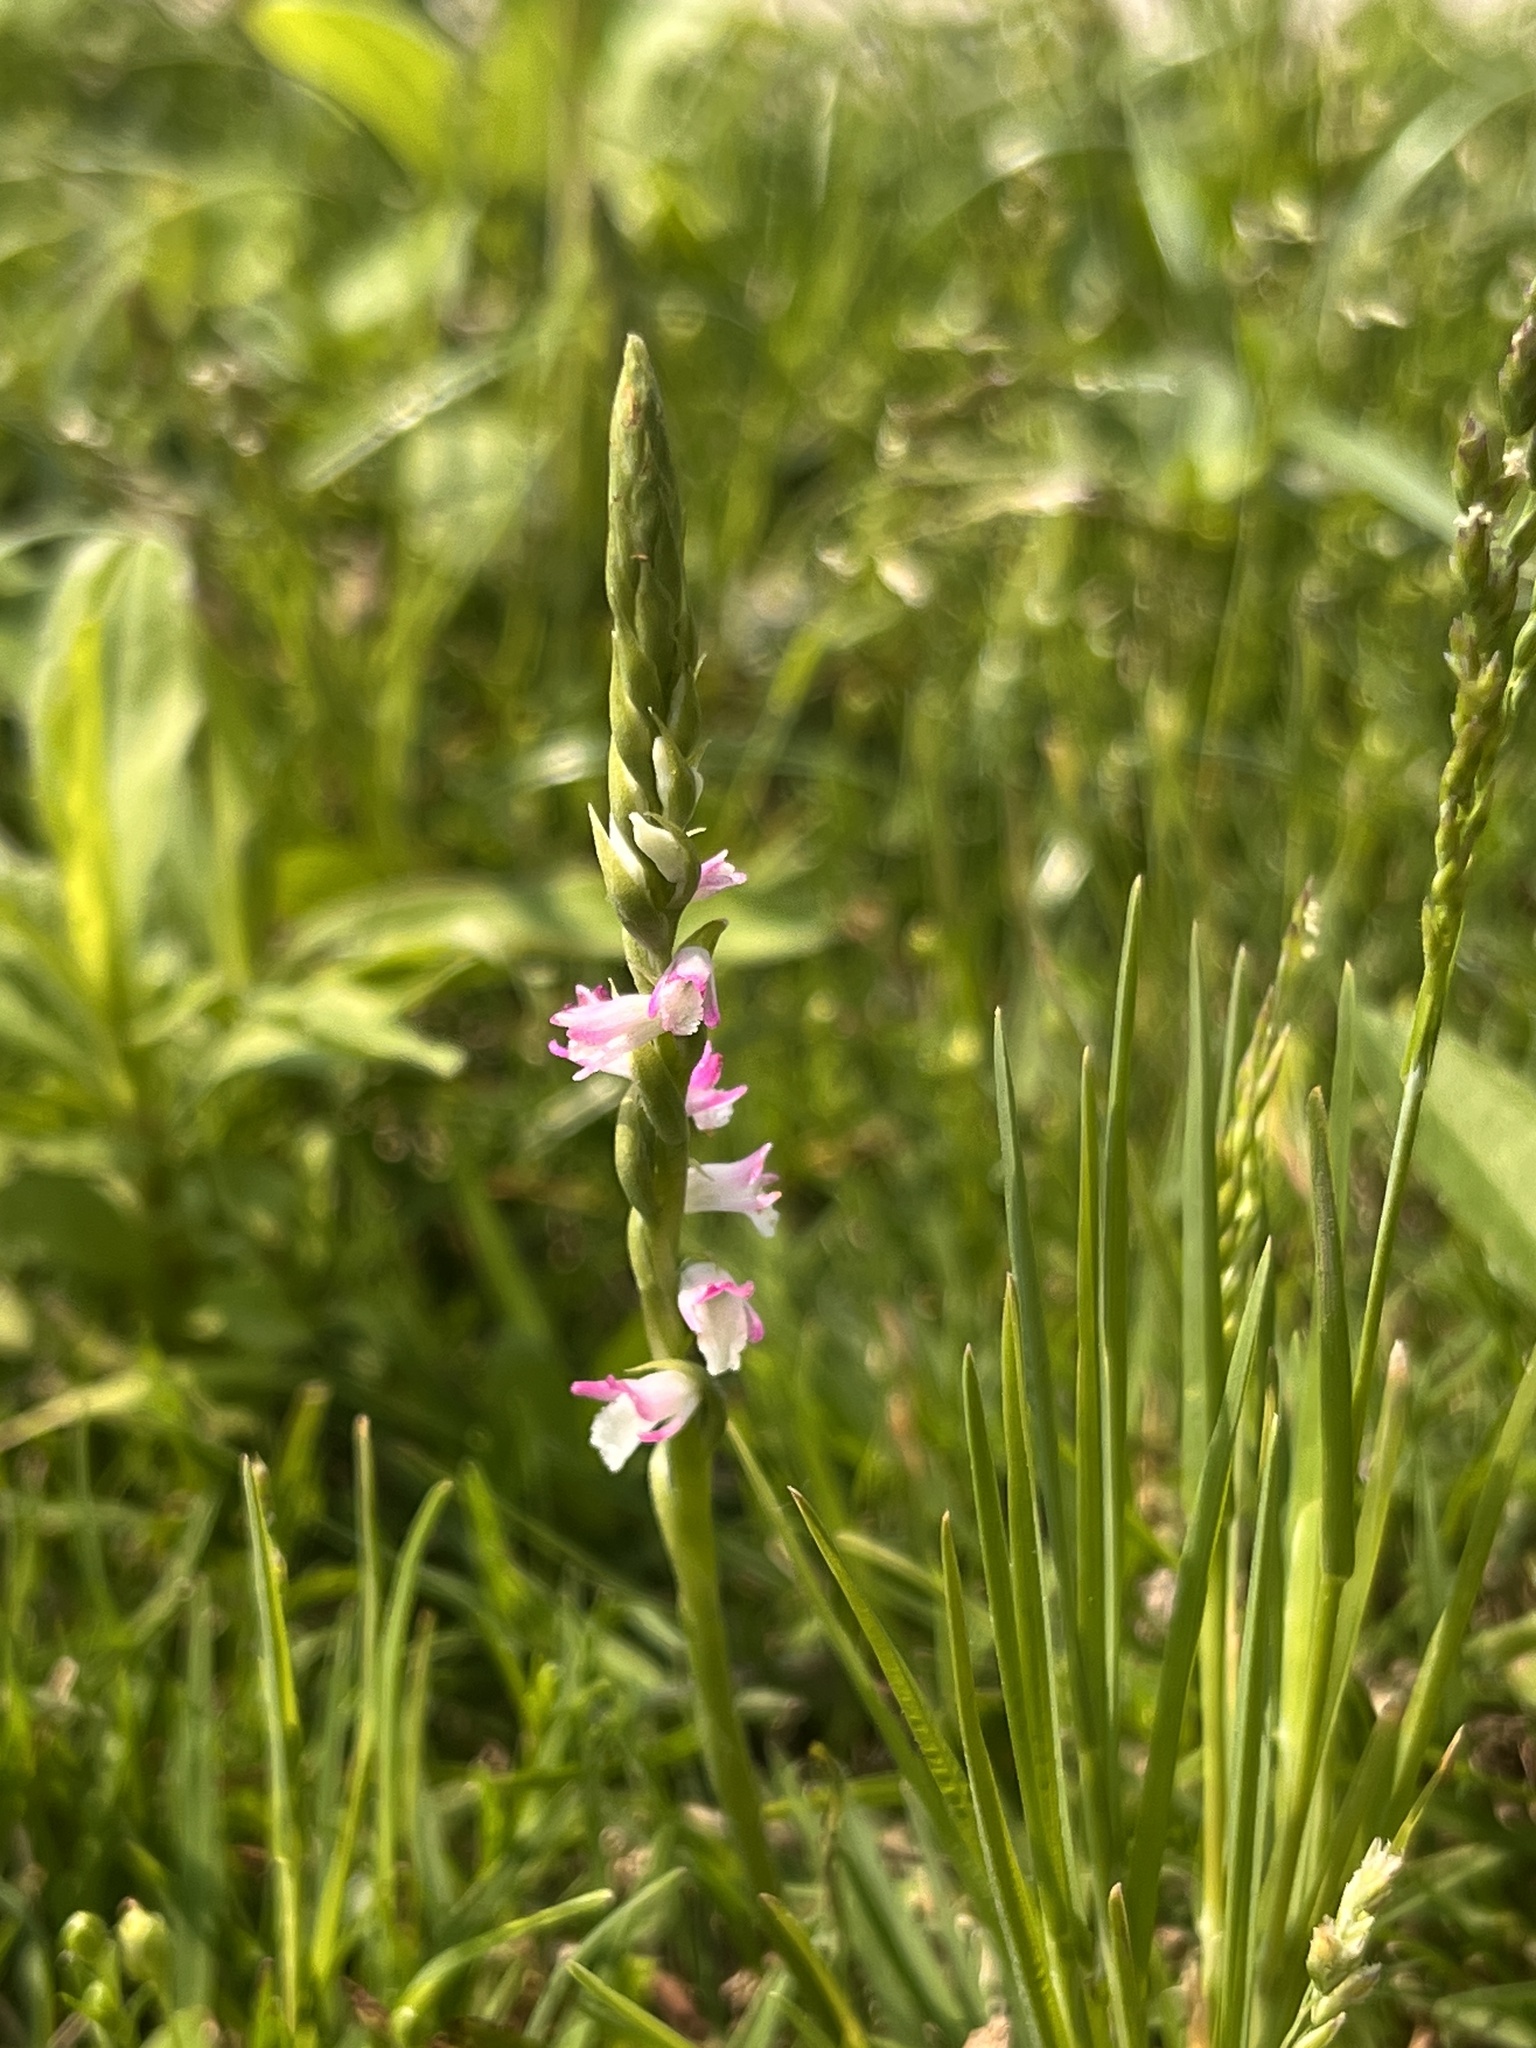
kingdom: Plantae
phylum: Tracheophyta
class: Liliopsida
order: Asparagales
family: Orchidaceae
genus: Spiranthes
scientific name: Spiranthes sinensis
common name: Chinese spiranthes
